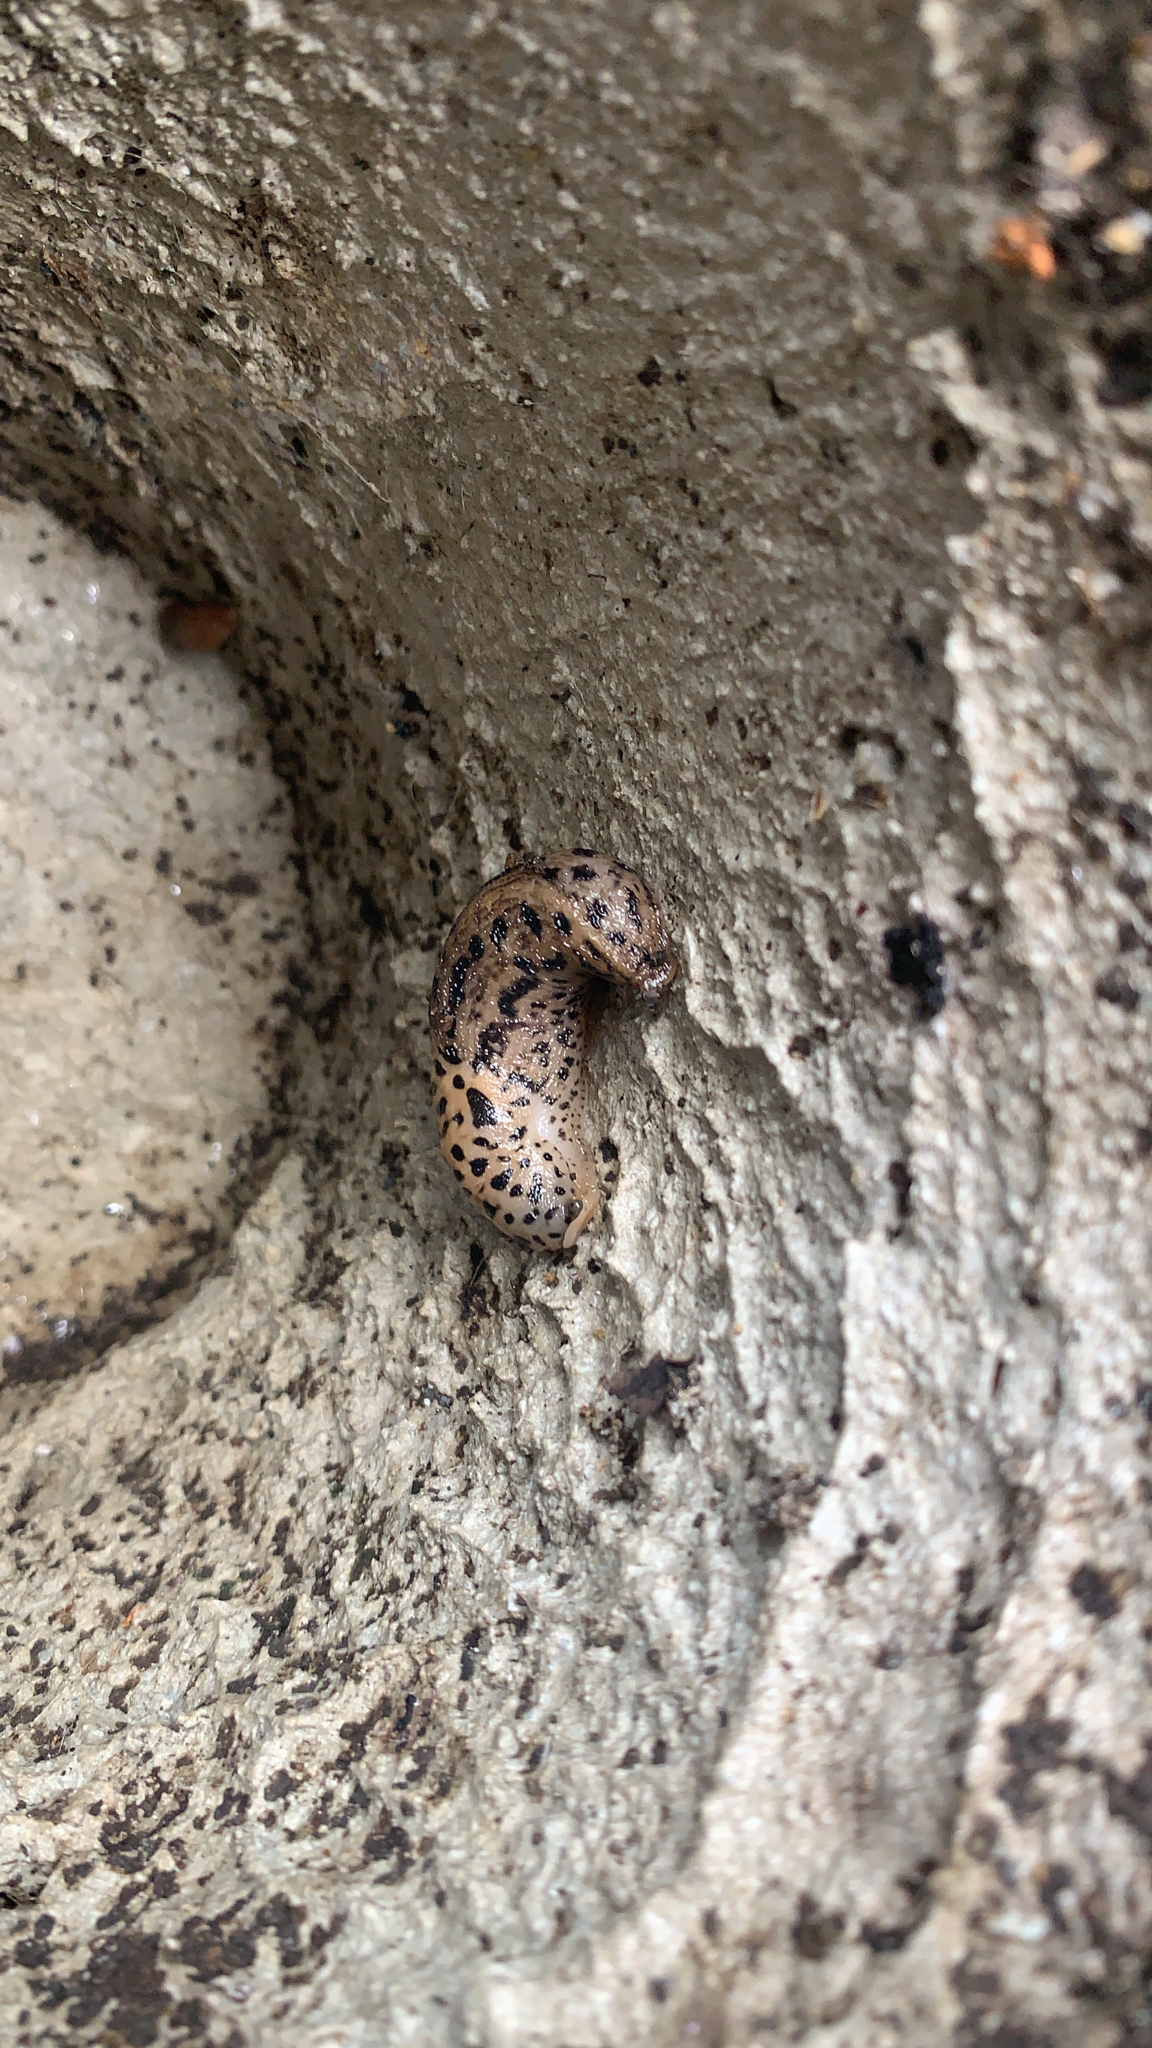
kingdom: Animalia
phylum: Mollusca
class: Gastropoda
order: Stylommatophora
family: Limacidae
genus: Limax
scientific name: Limax maximus
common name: Great grey slug
